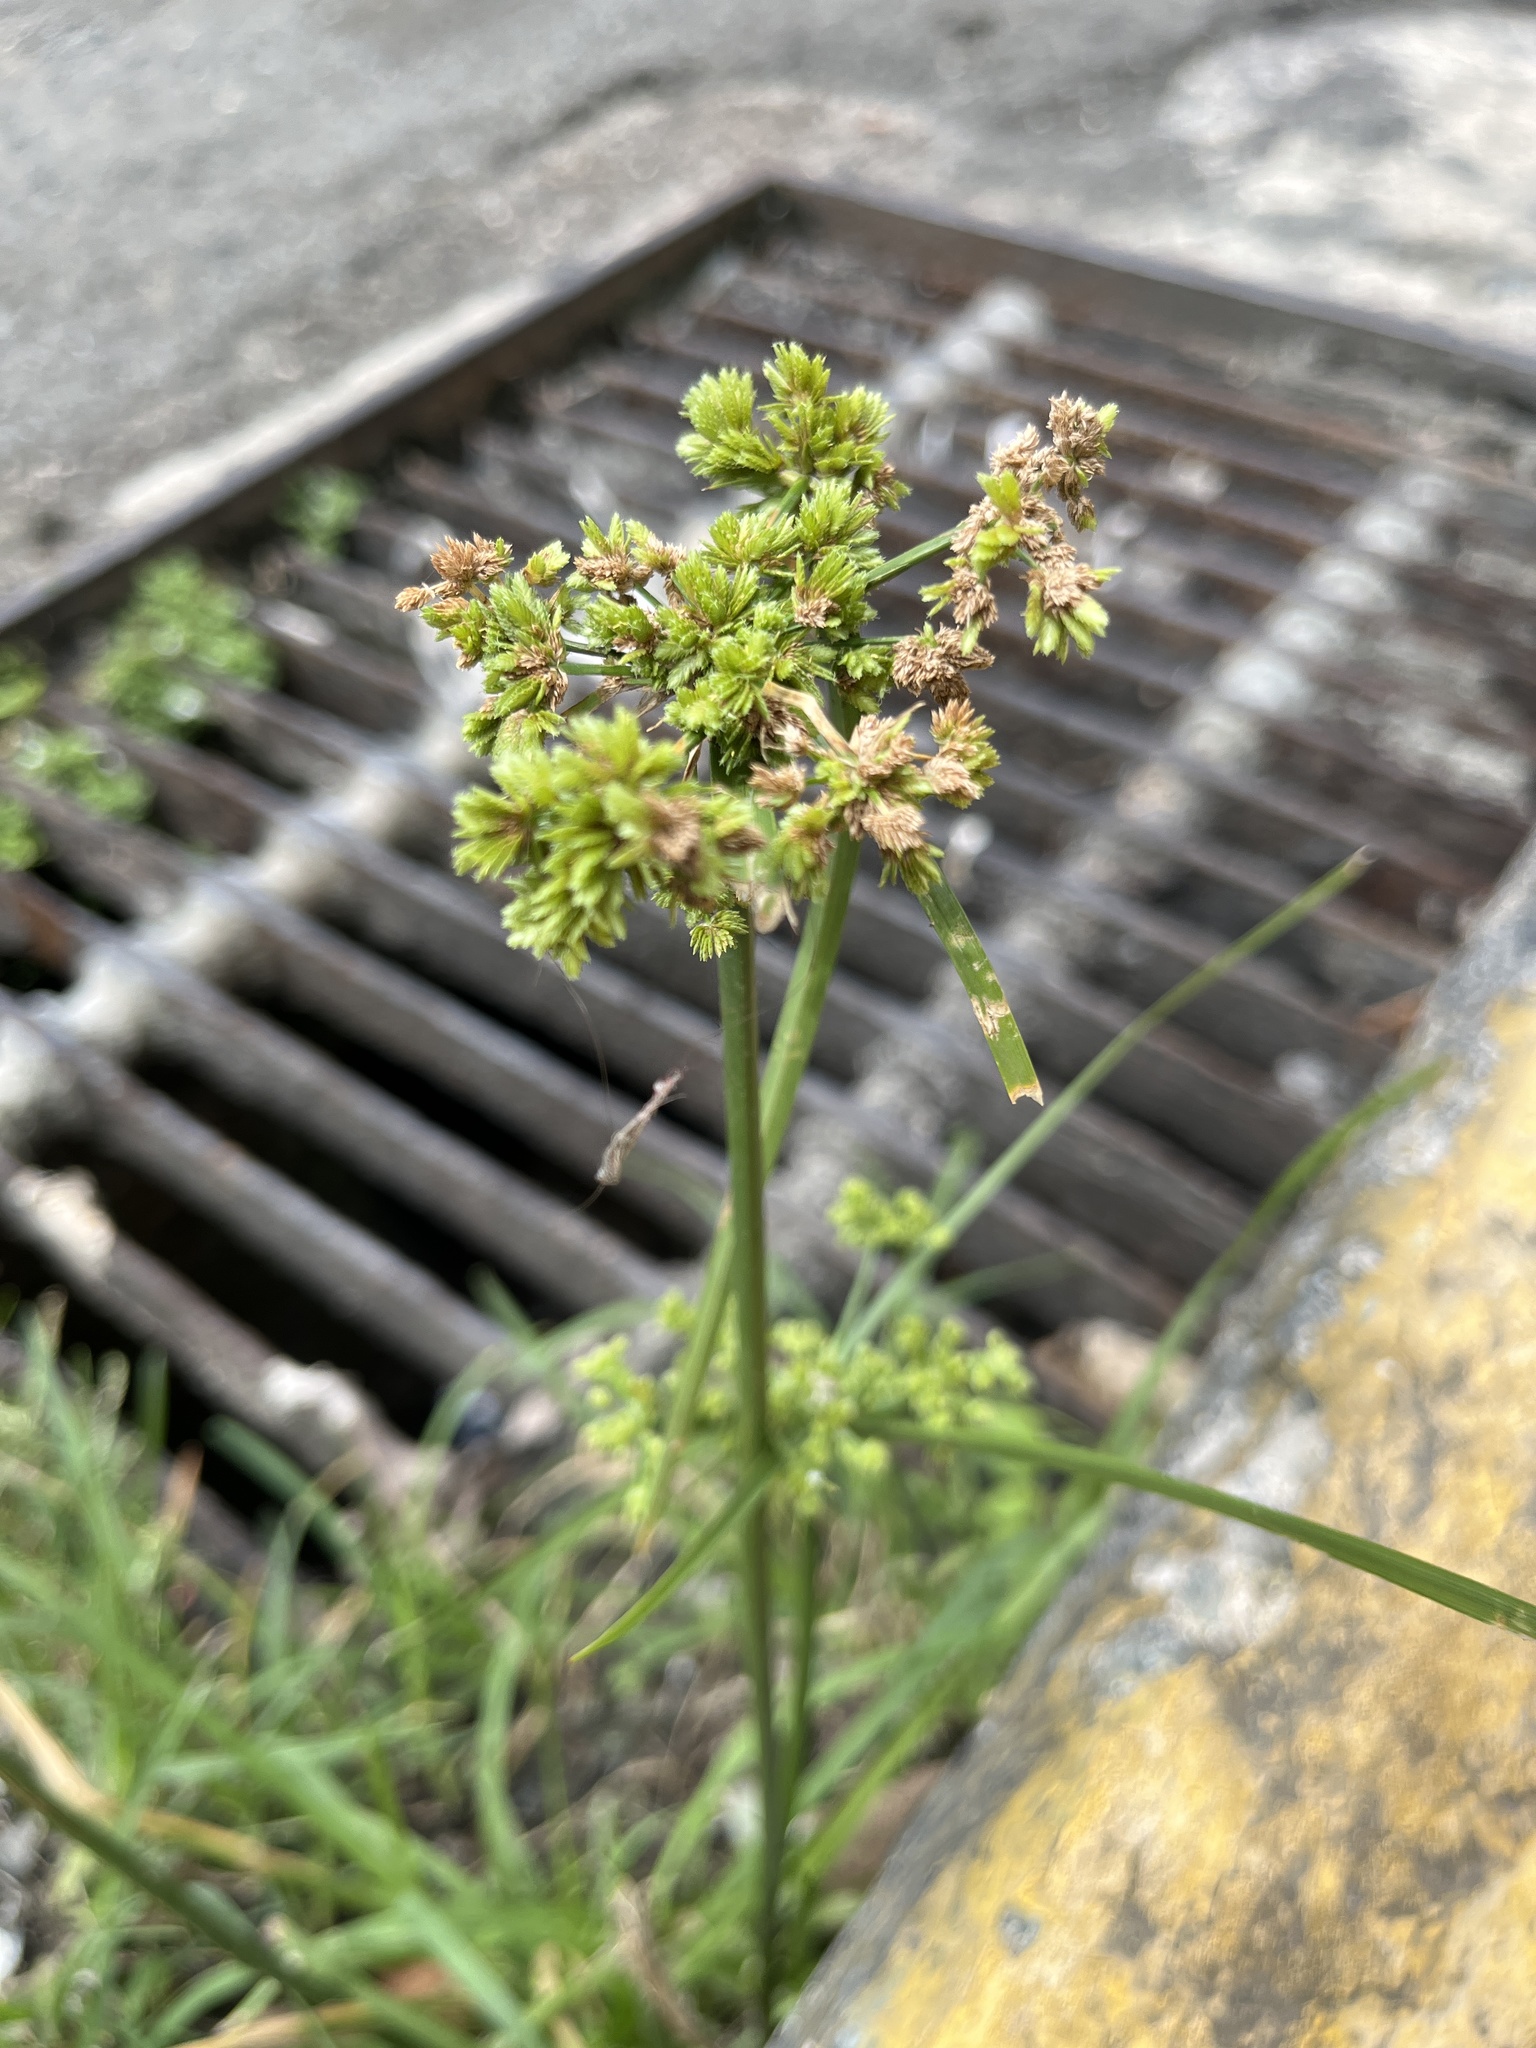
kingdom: Plantae
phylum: Tracheophyta
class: Liliopsida
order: Poales
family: Cyperaceae
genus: Cyperus
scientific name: Cyperus surinamensis
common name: Tropical flat sedge
